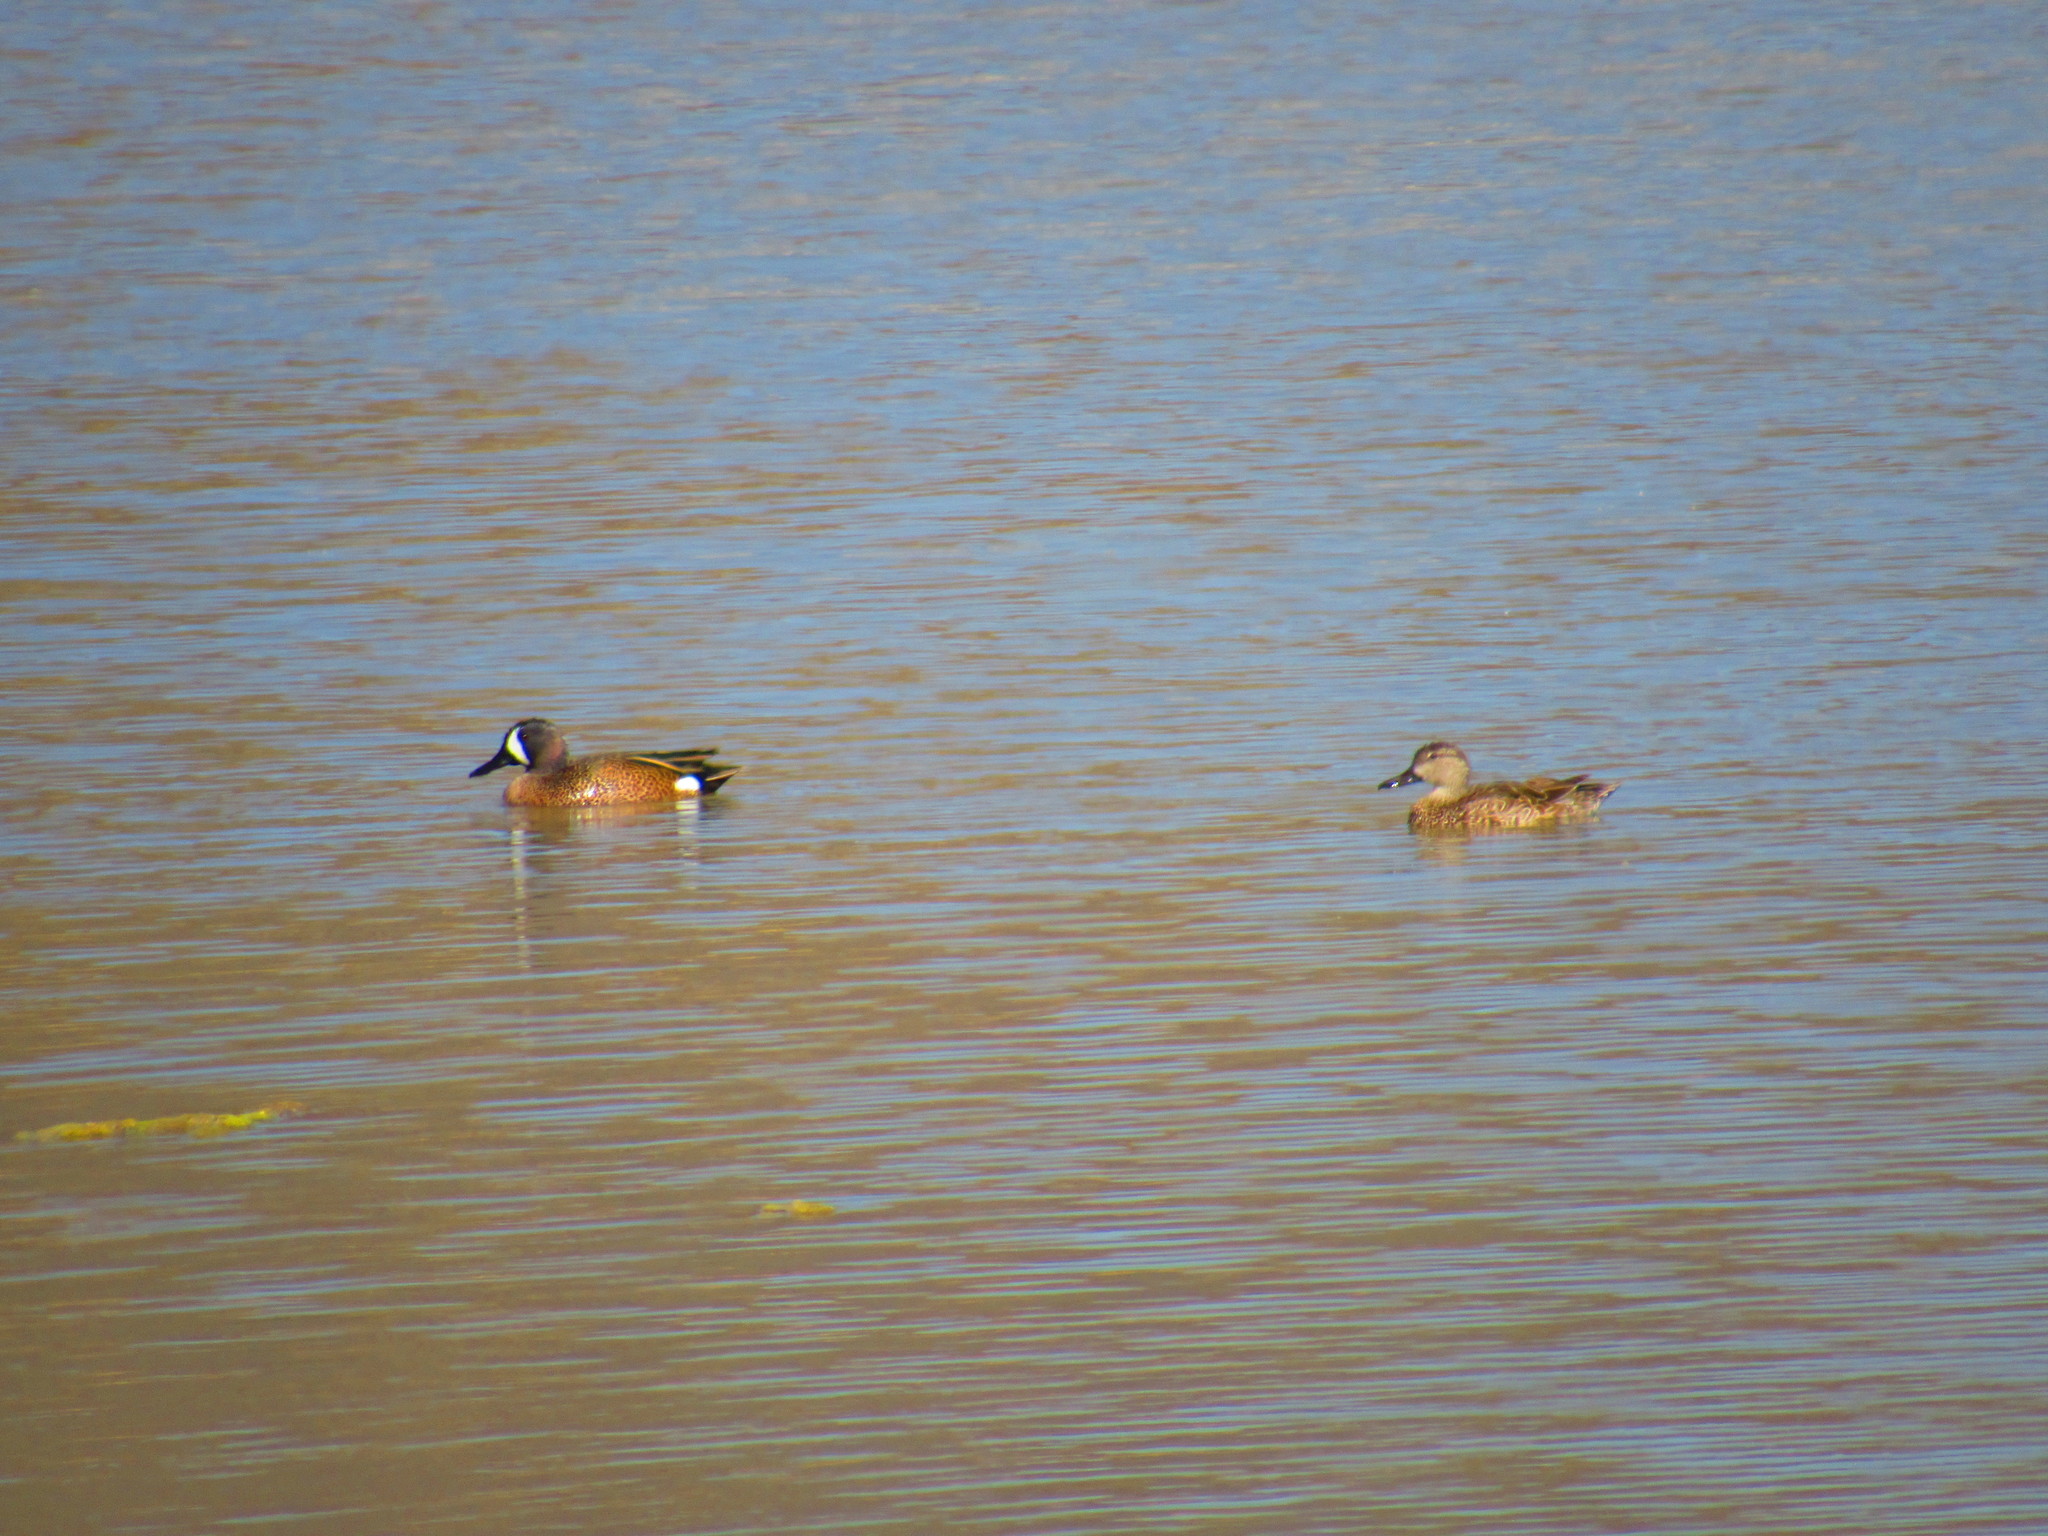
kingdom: Animalia
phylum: Chordata
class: Aves
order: Anseriformes
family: Anatidae
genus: Spatula
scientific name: Spatula discors
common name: Blue-winged teal
